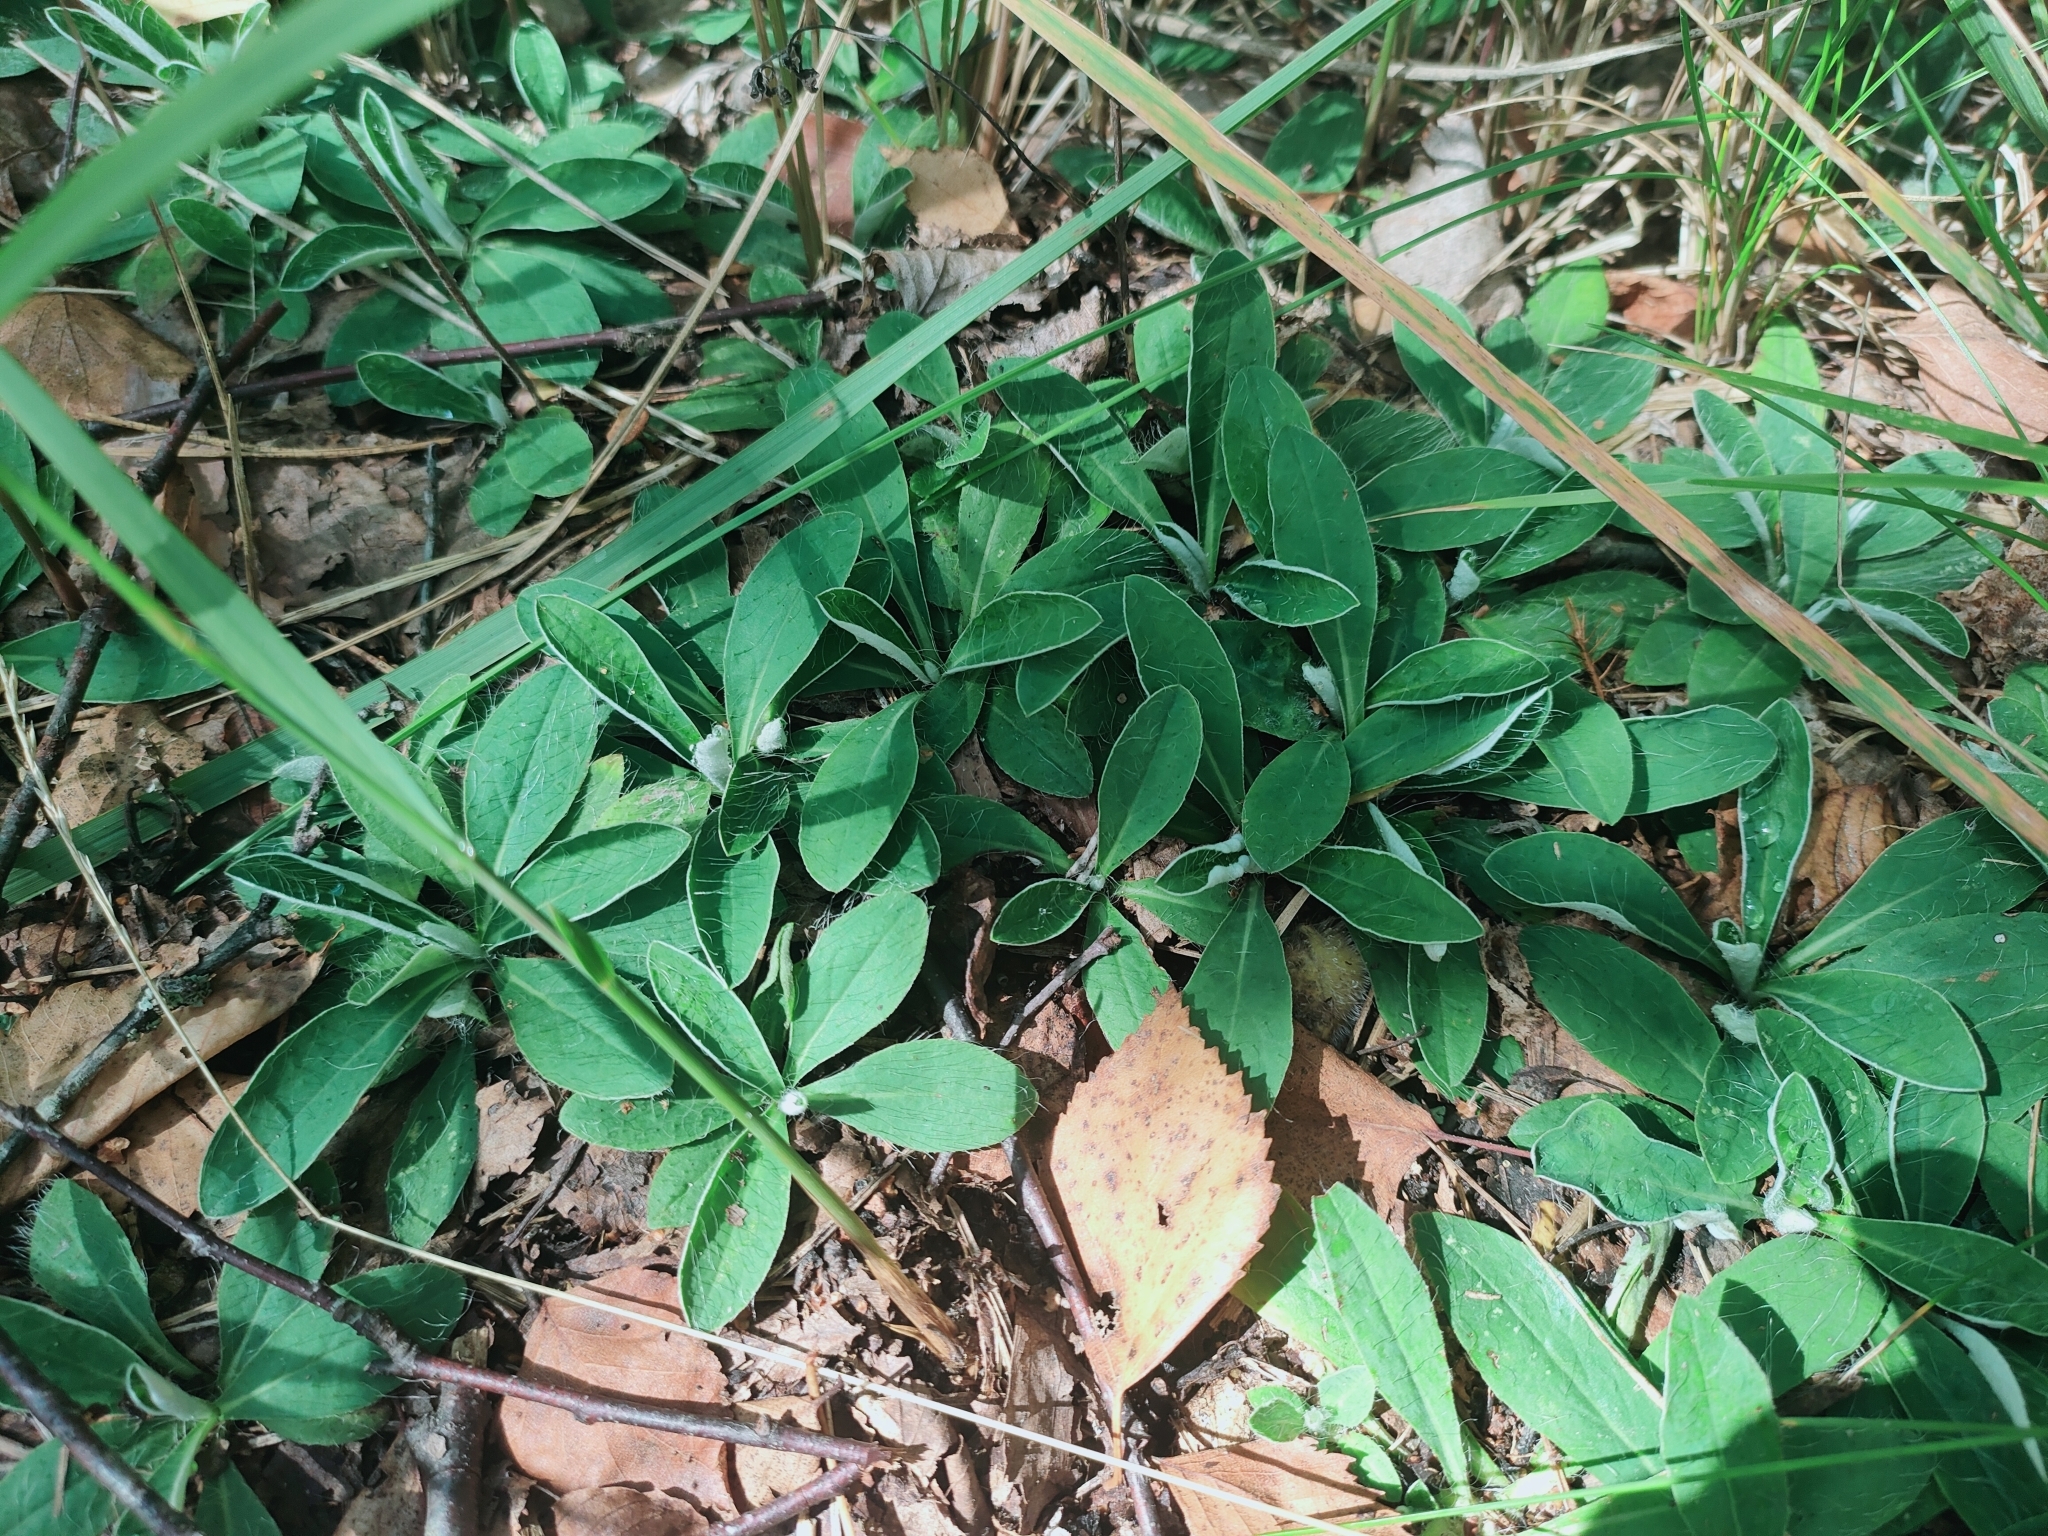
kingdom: Plantae
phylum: Tracheophyta
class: Magnoliopsida
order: Asterales
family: Asteraceae
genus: Pilosella
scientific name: Pilosella officinarum
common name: Mouse-ear hawkweed
